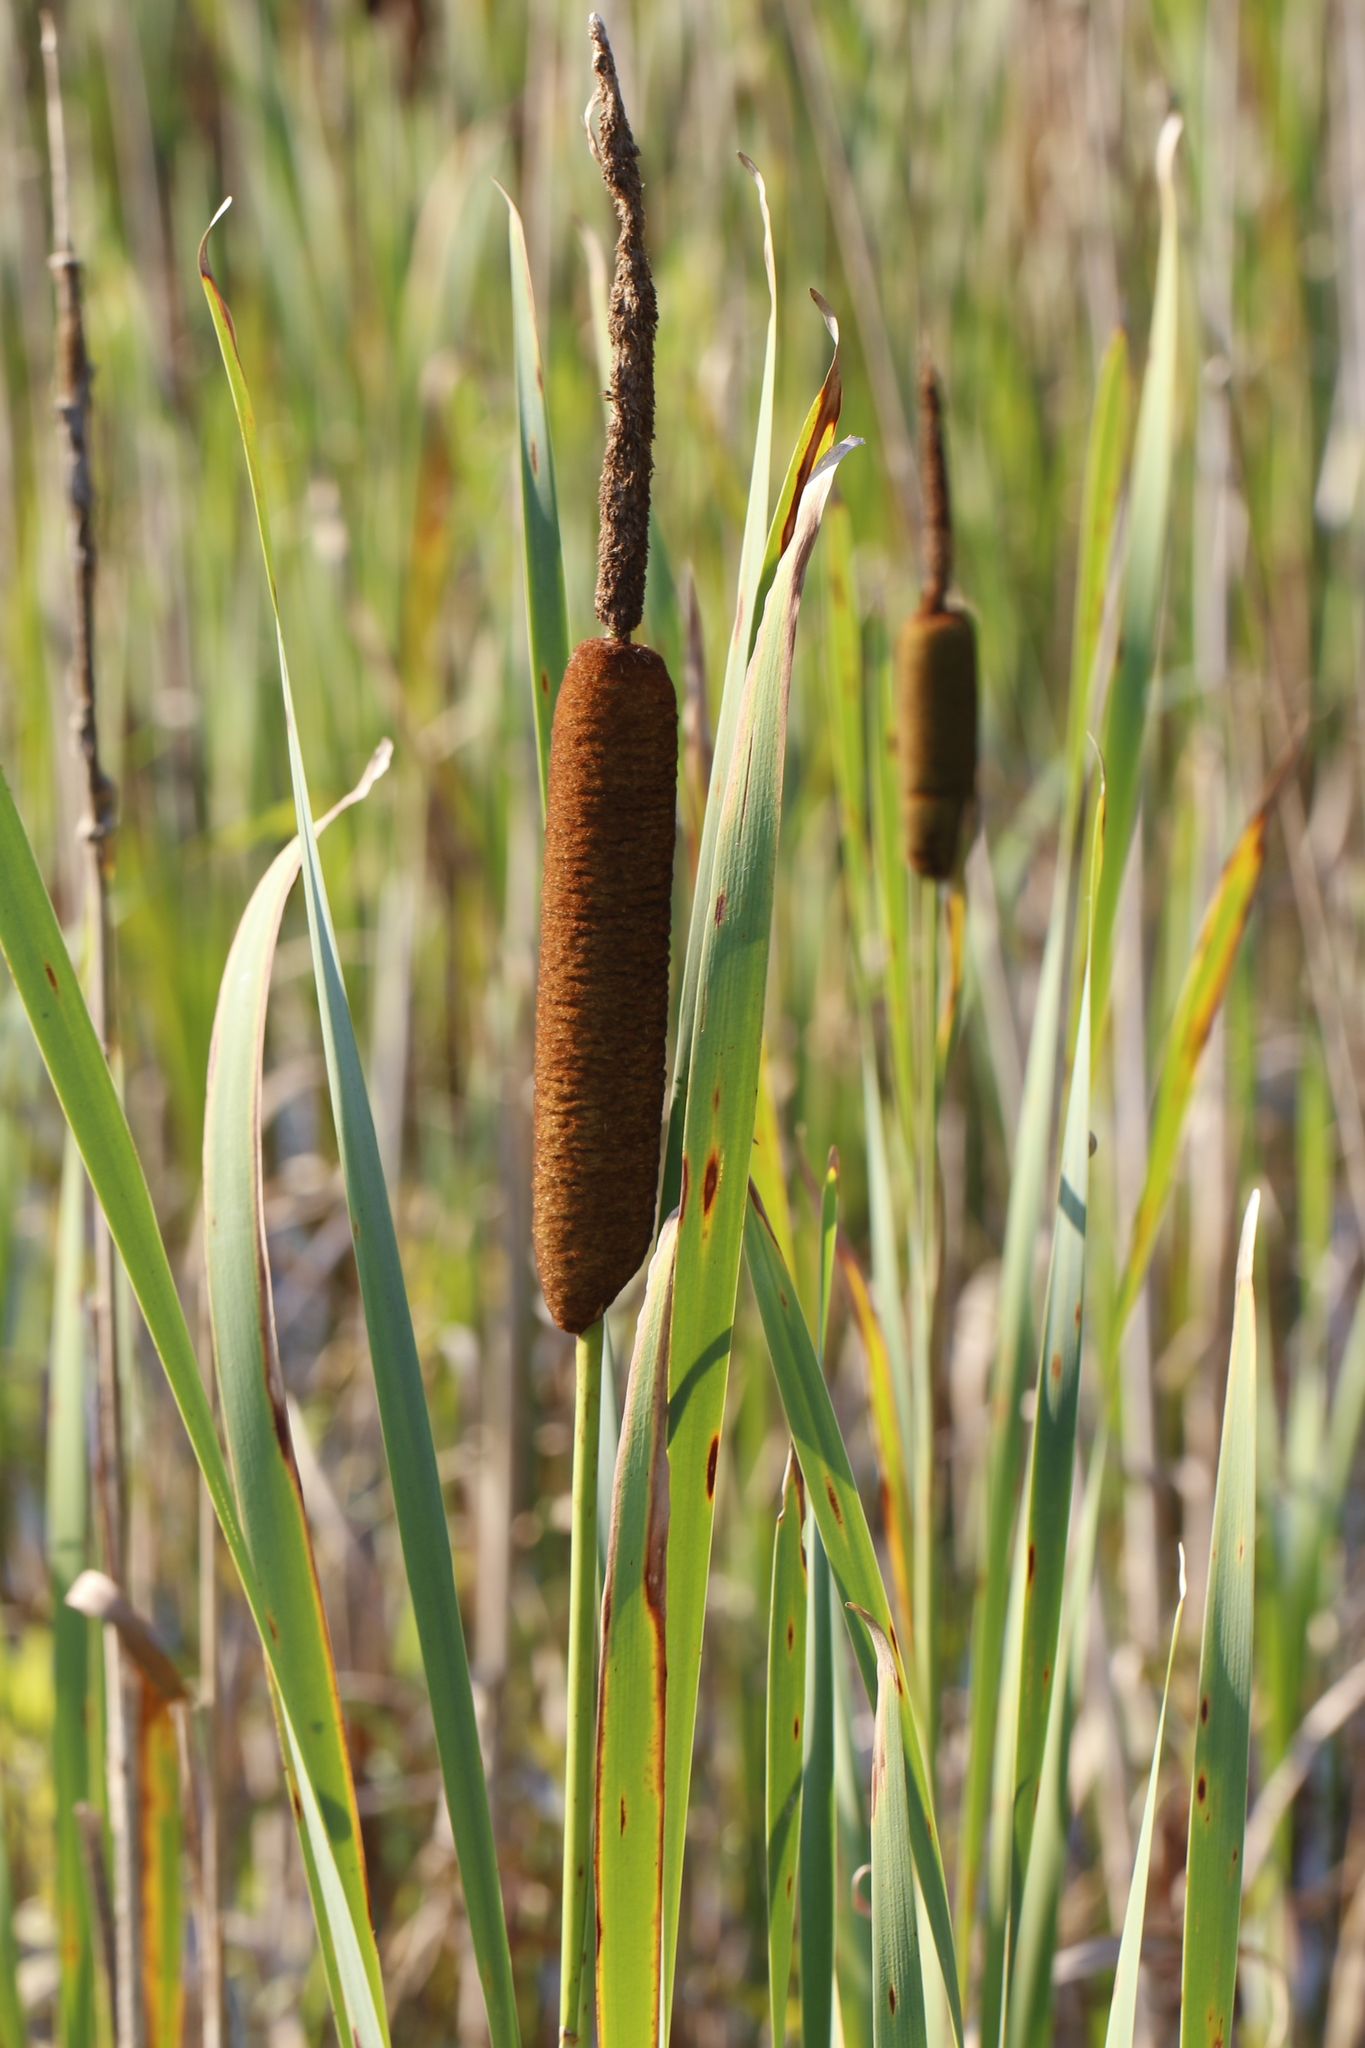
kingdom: Plantae
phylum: Tracheophyta
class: Liliopsida
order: Poales
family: Typhaceae
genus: Typha
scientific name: Typha latifolia
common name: Broadleaf cattail
